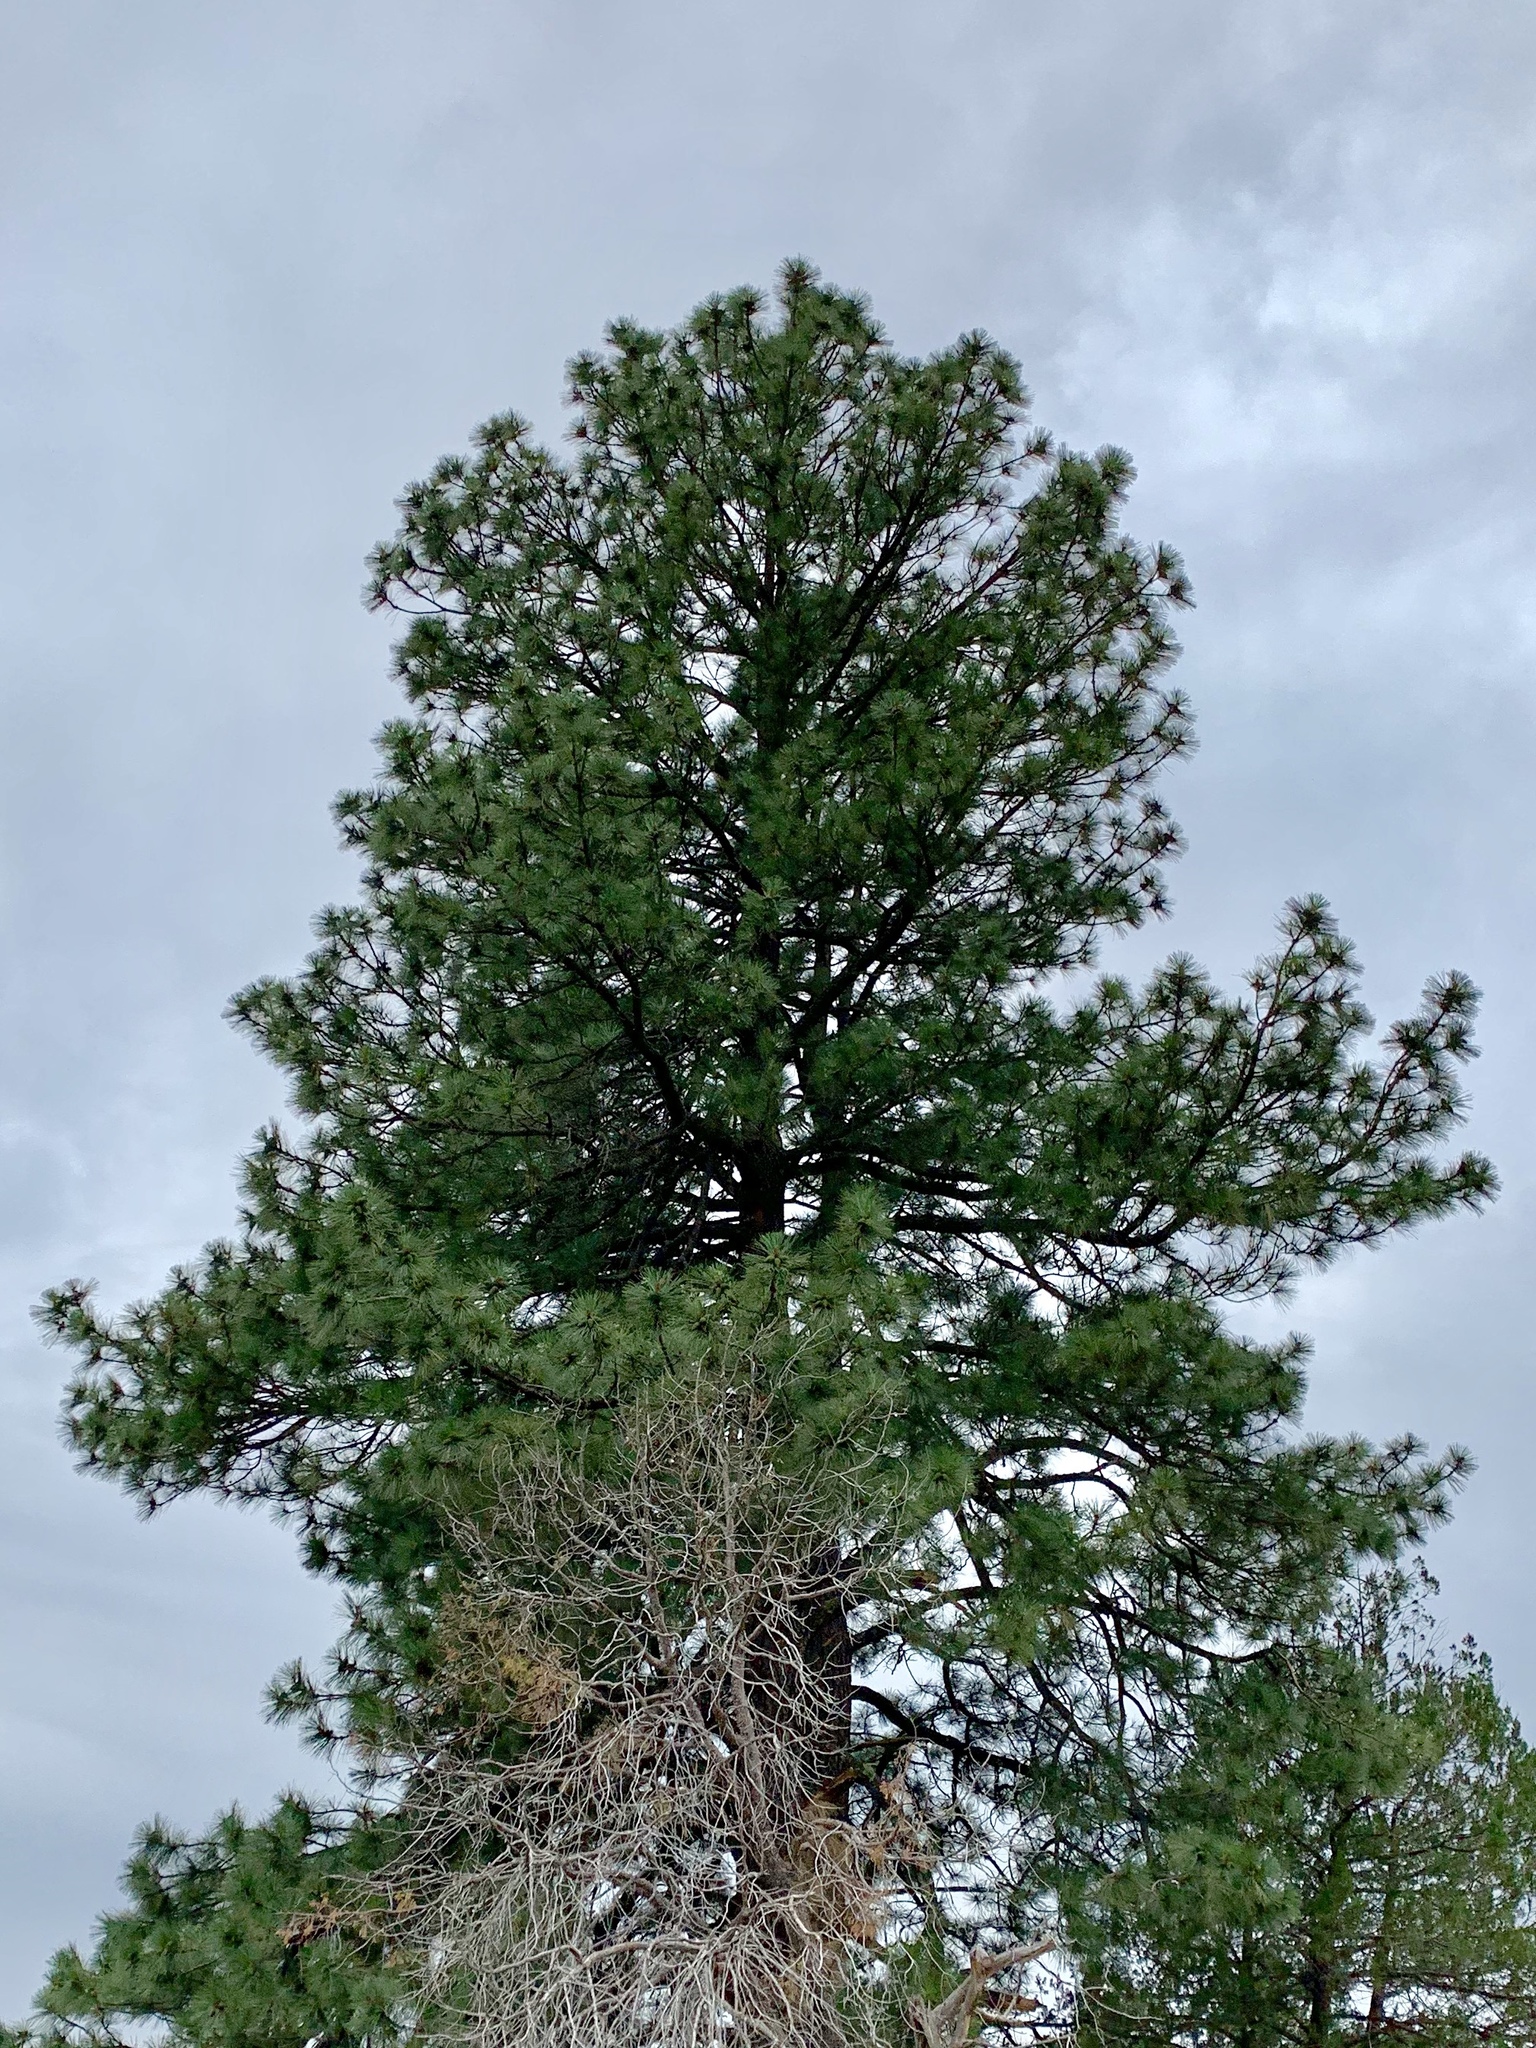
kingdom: Plantae
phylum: Tracheophyta
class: Pinopsida
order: Pinales
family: Pinaceae
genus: Pinus
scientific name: Pinus ponderosa
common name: Western yellow-pine
